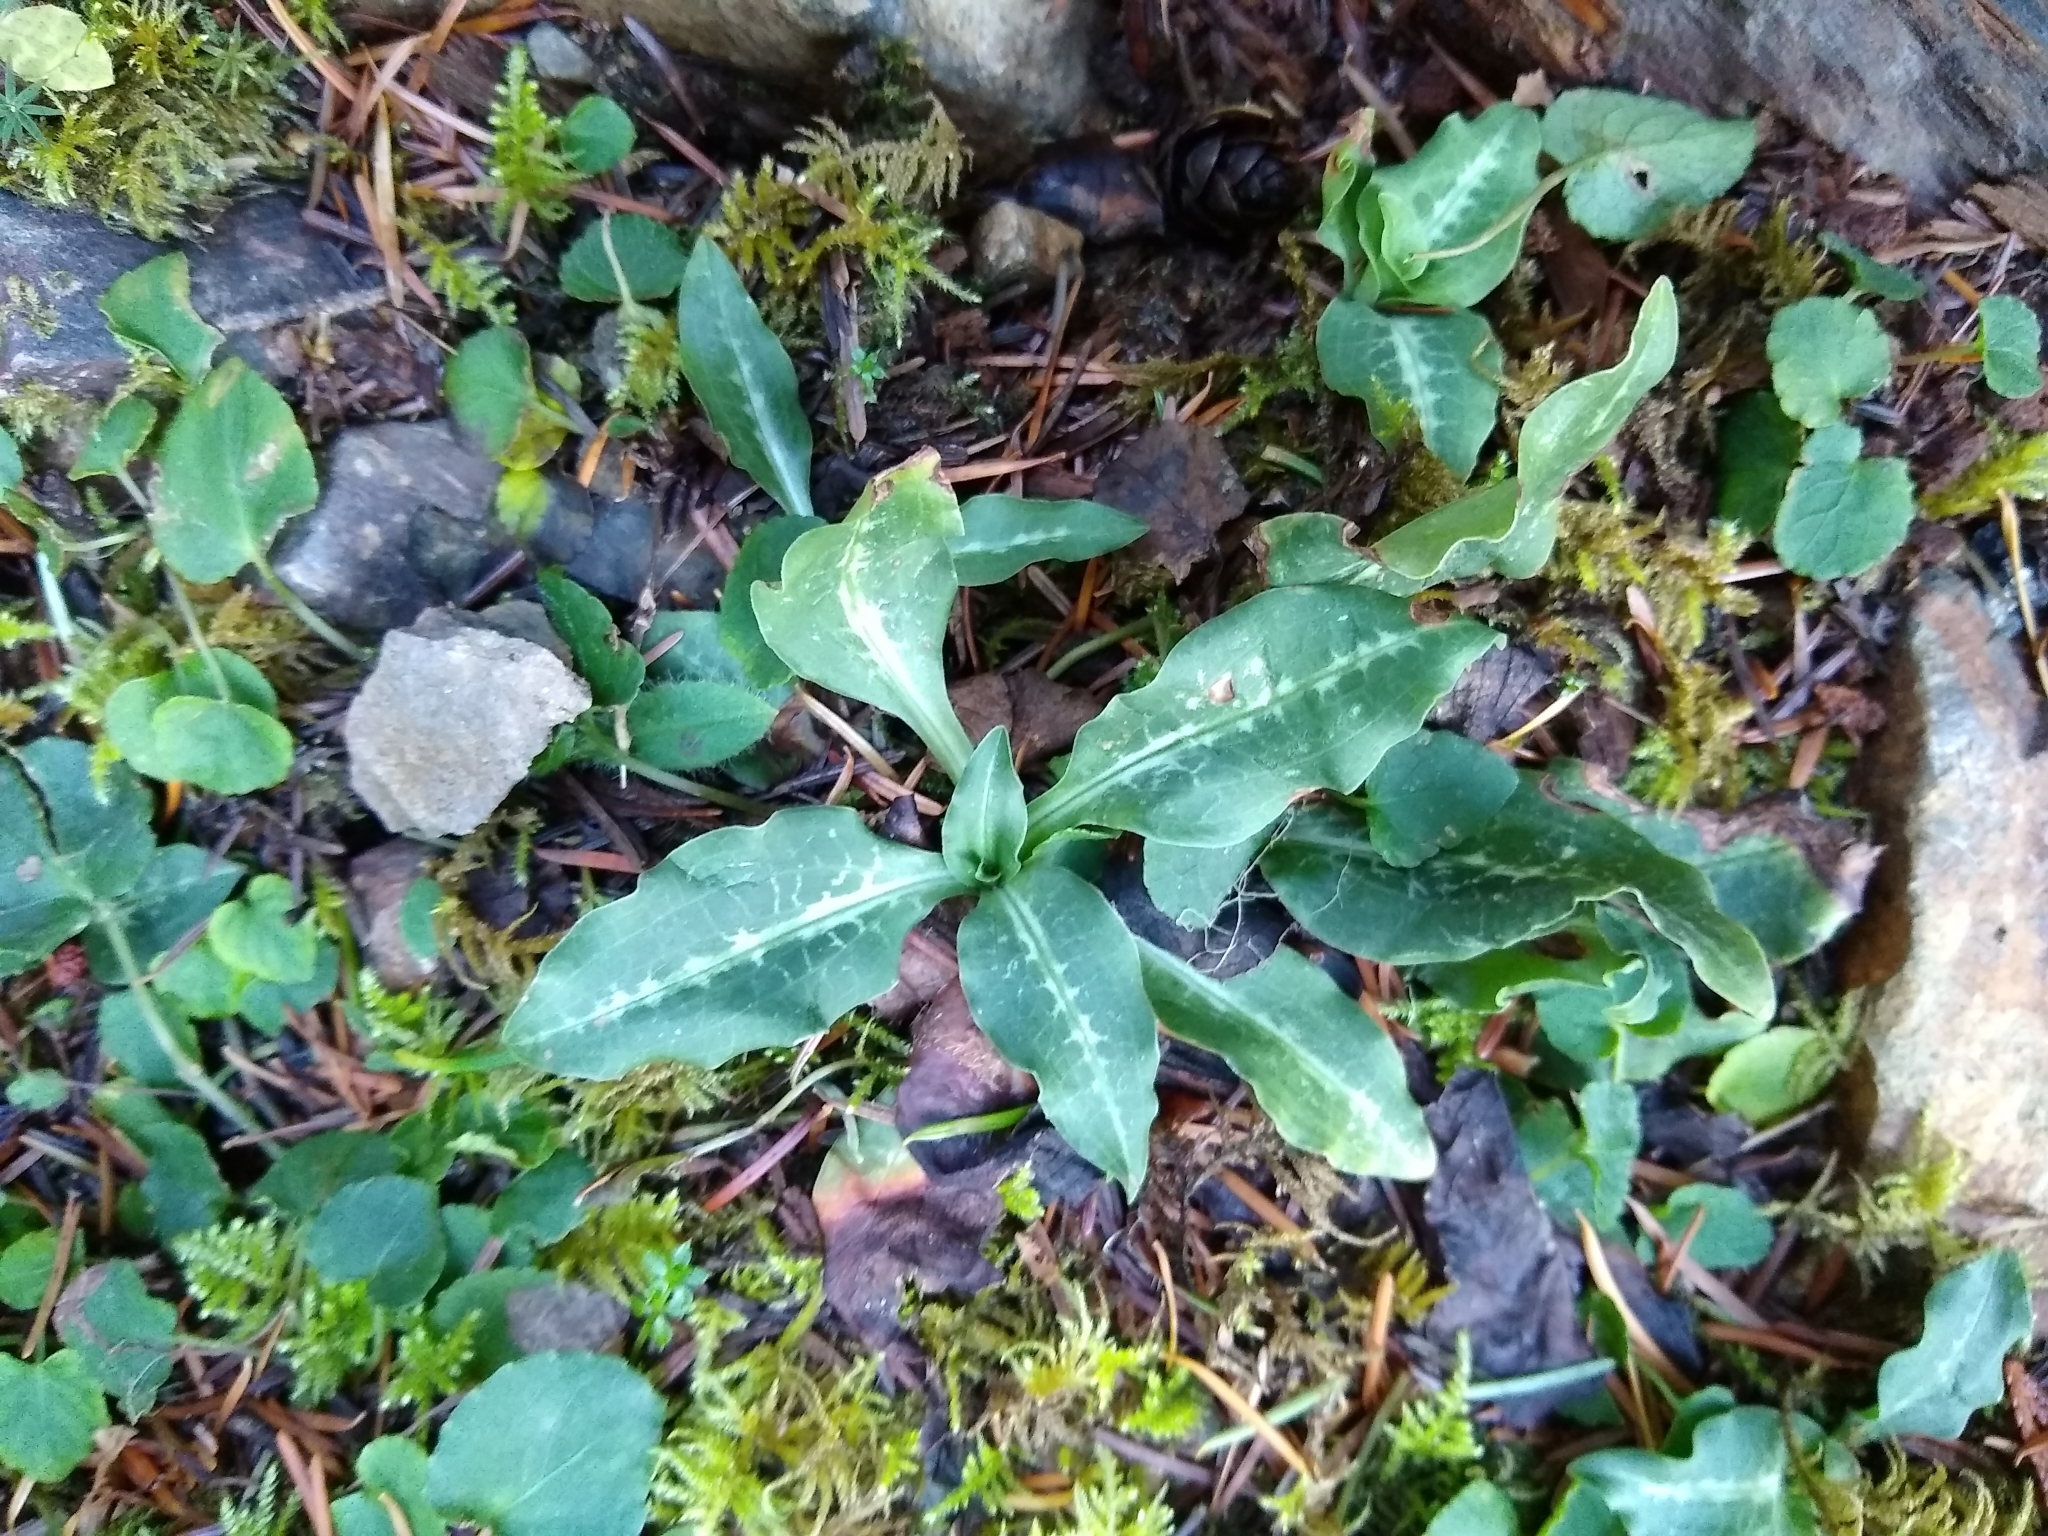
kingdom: Plantae
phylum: Tracheophyta
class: Liliopsida
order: Asparagales
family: Orchidaceae
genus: Goodyera
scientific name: Goodyera oblongifolia
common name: Giant rattlesnake-plantain
